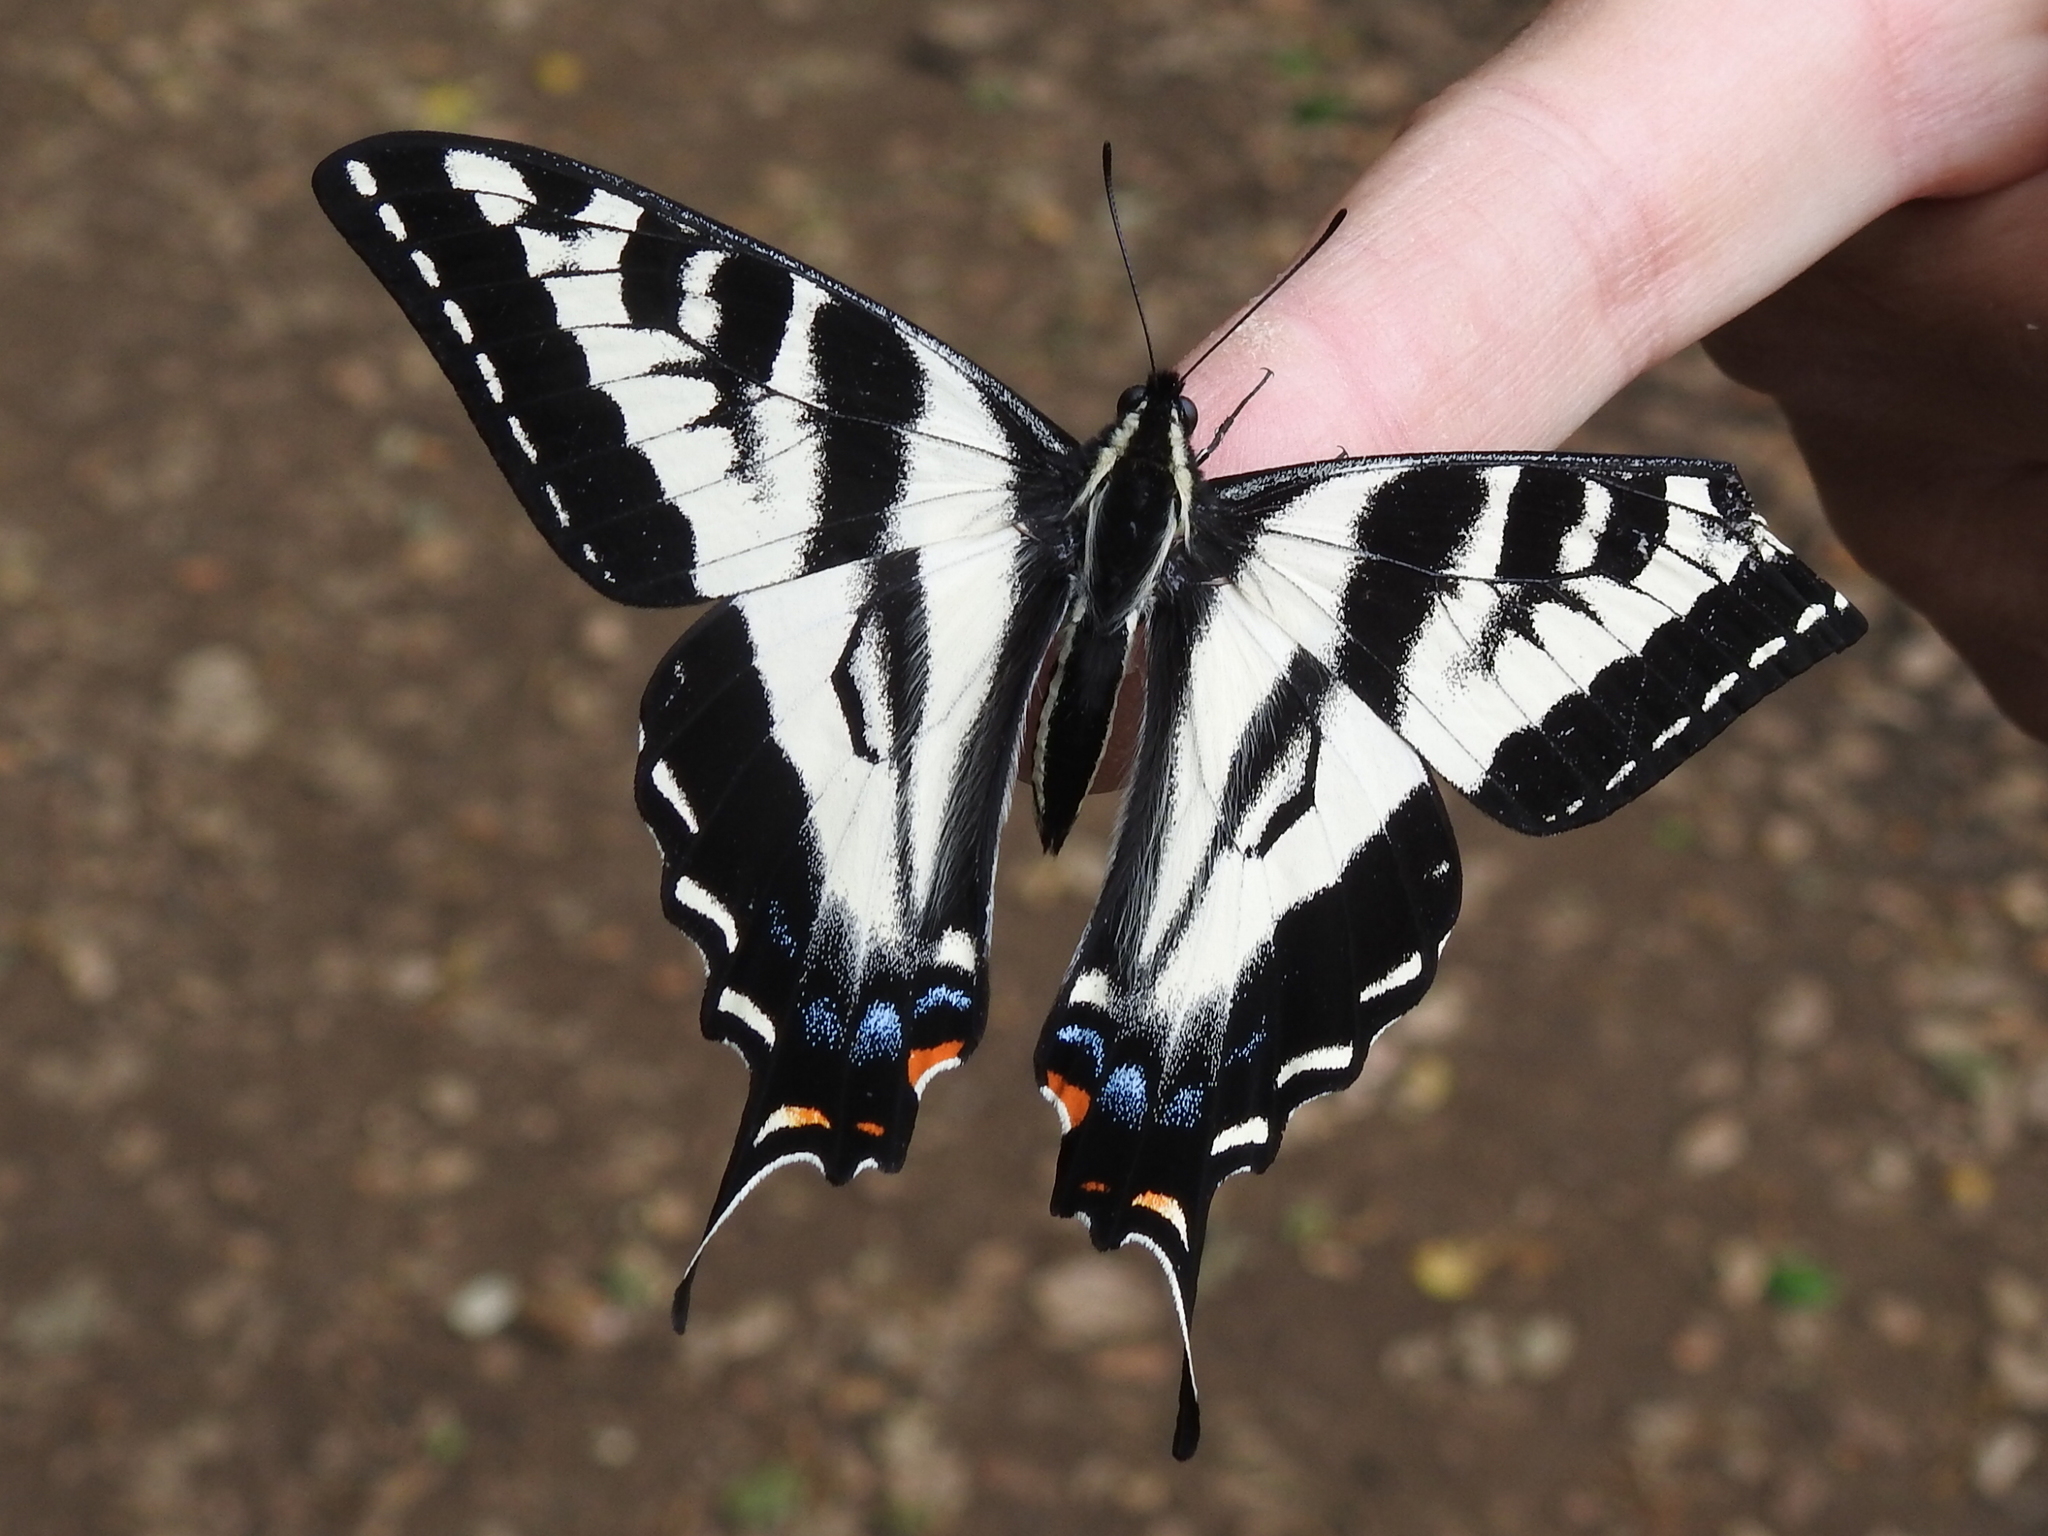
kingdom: Animalia
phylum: Arthropoda
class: Insecta
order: Lepidoptera
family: Papilionidae
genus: Papilio
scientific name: Papilio eurymedon
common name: Pale tiger swallowtail
